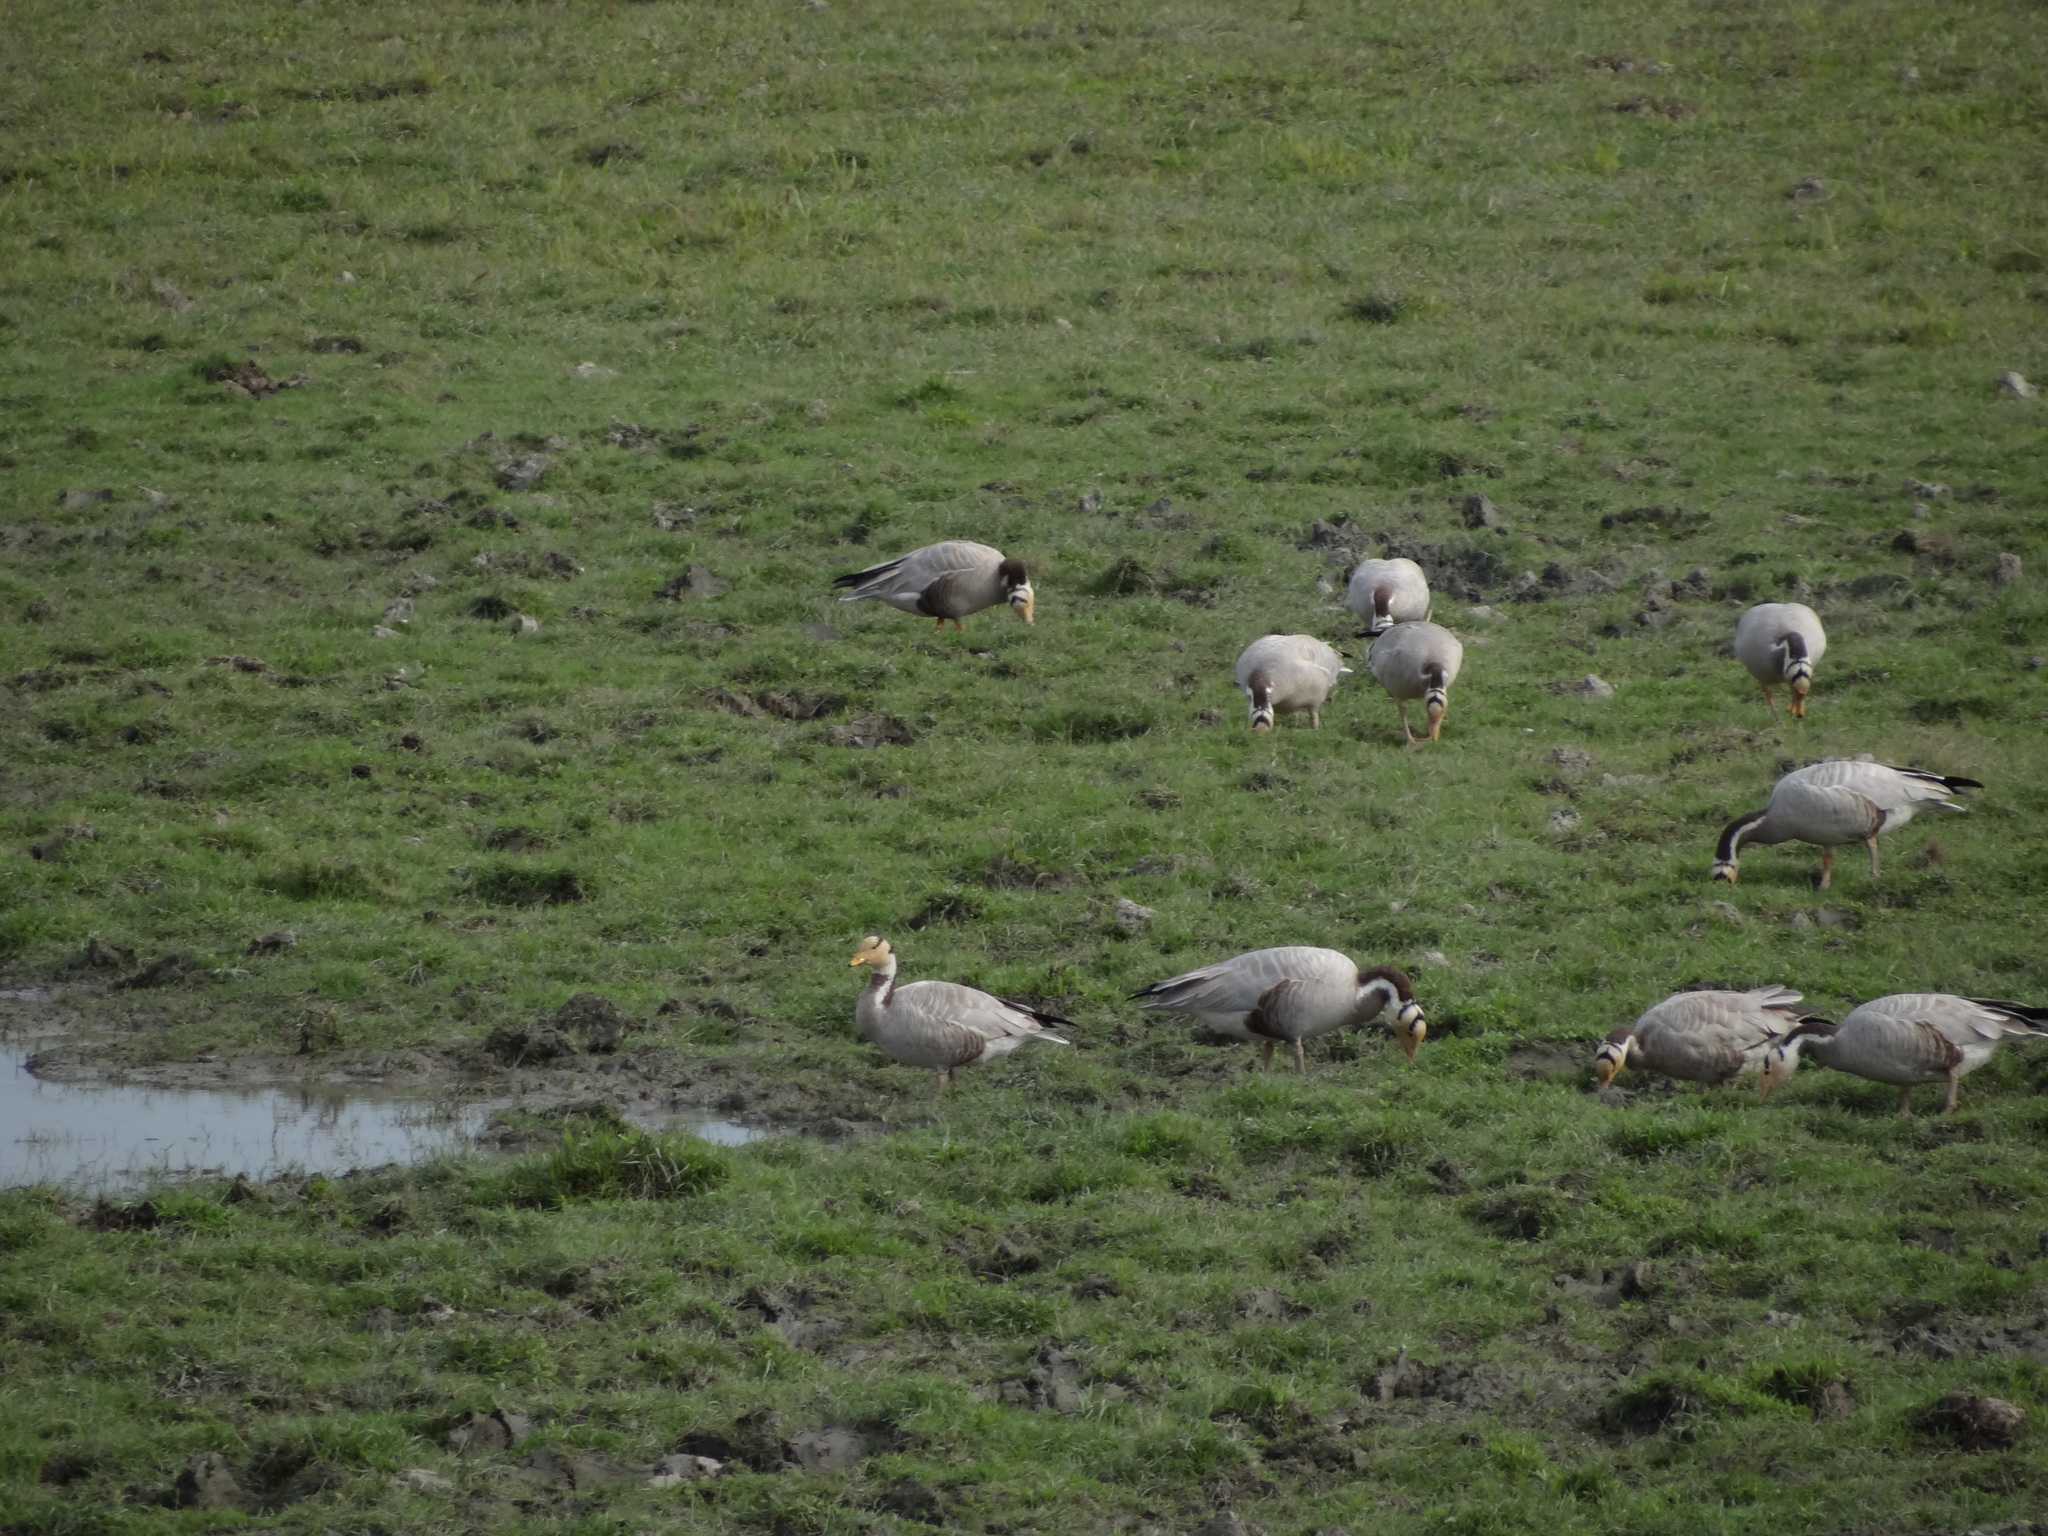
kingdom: Animalia
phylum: Chordata
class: Aves
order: Anseriformes
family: Anatidae
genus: Anser
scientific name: Anser indicus
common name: Bar-headed goose
